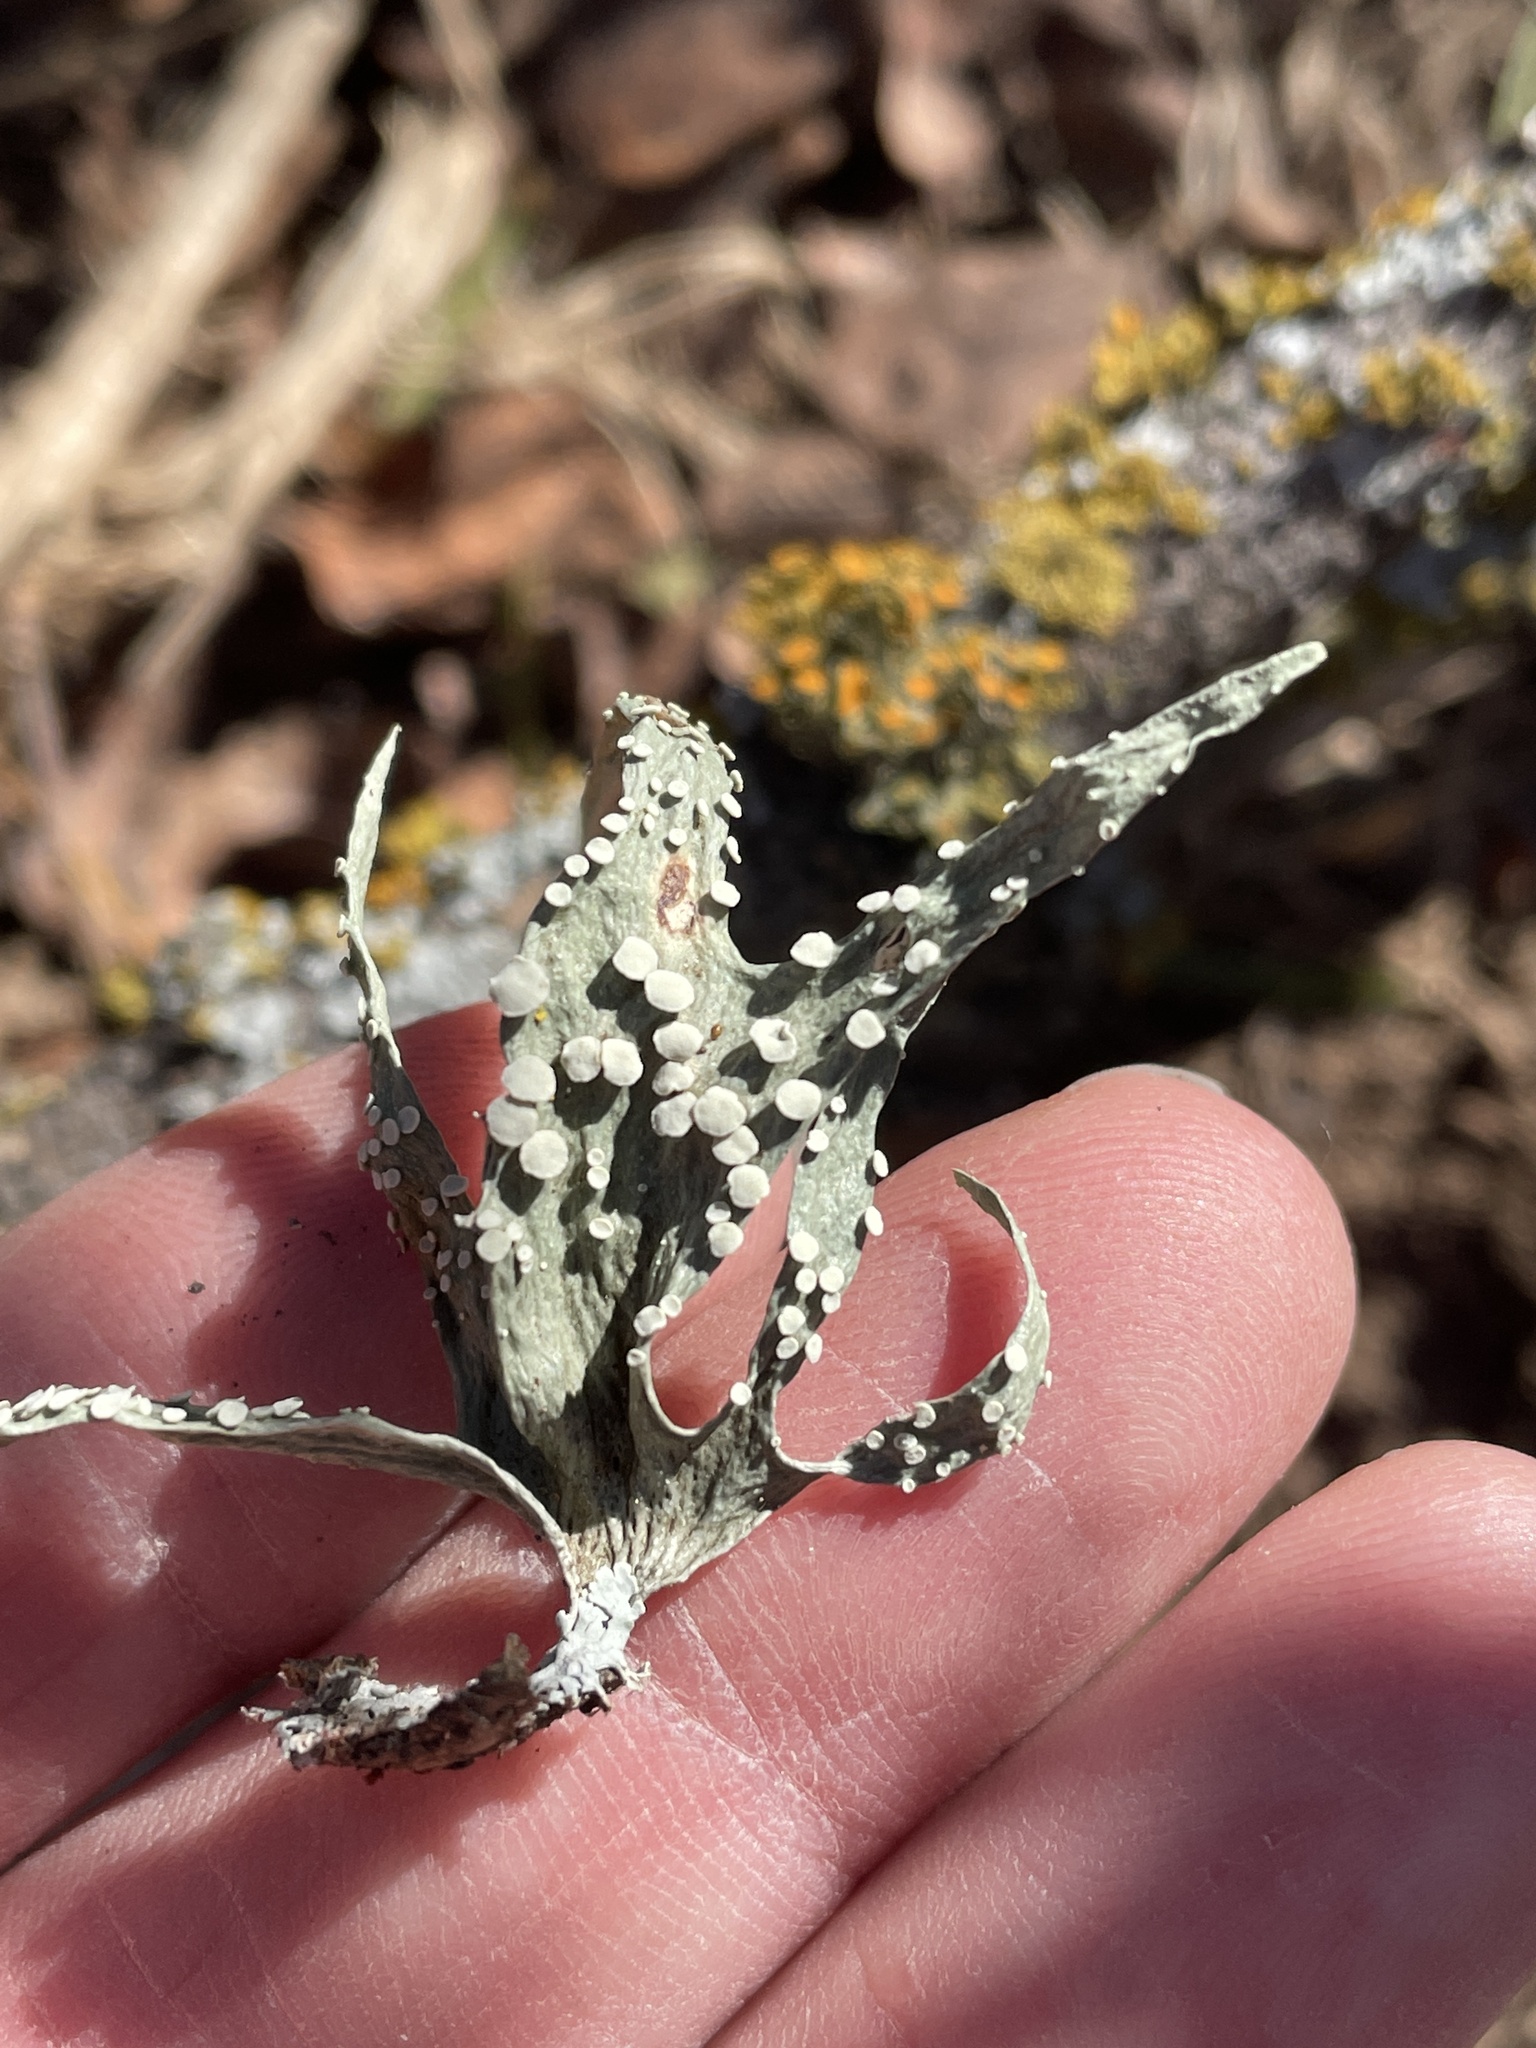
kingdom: Fungi
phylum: Ascomycota
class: Lecanoromycetes
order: Lecanorales
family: Ramalinaceae
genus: Ramalina
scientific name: Ramalina celastri
